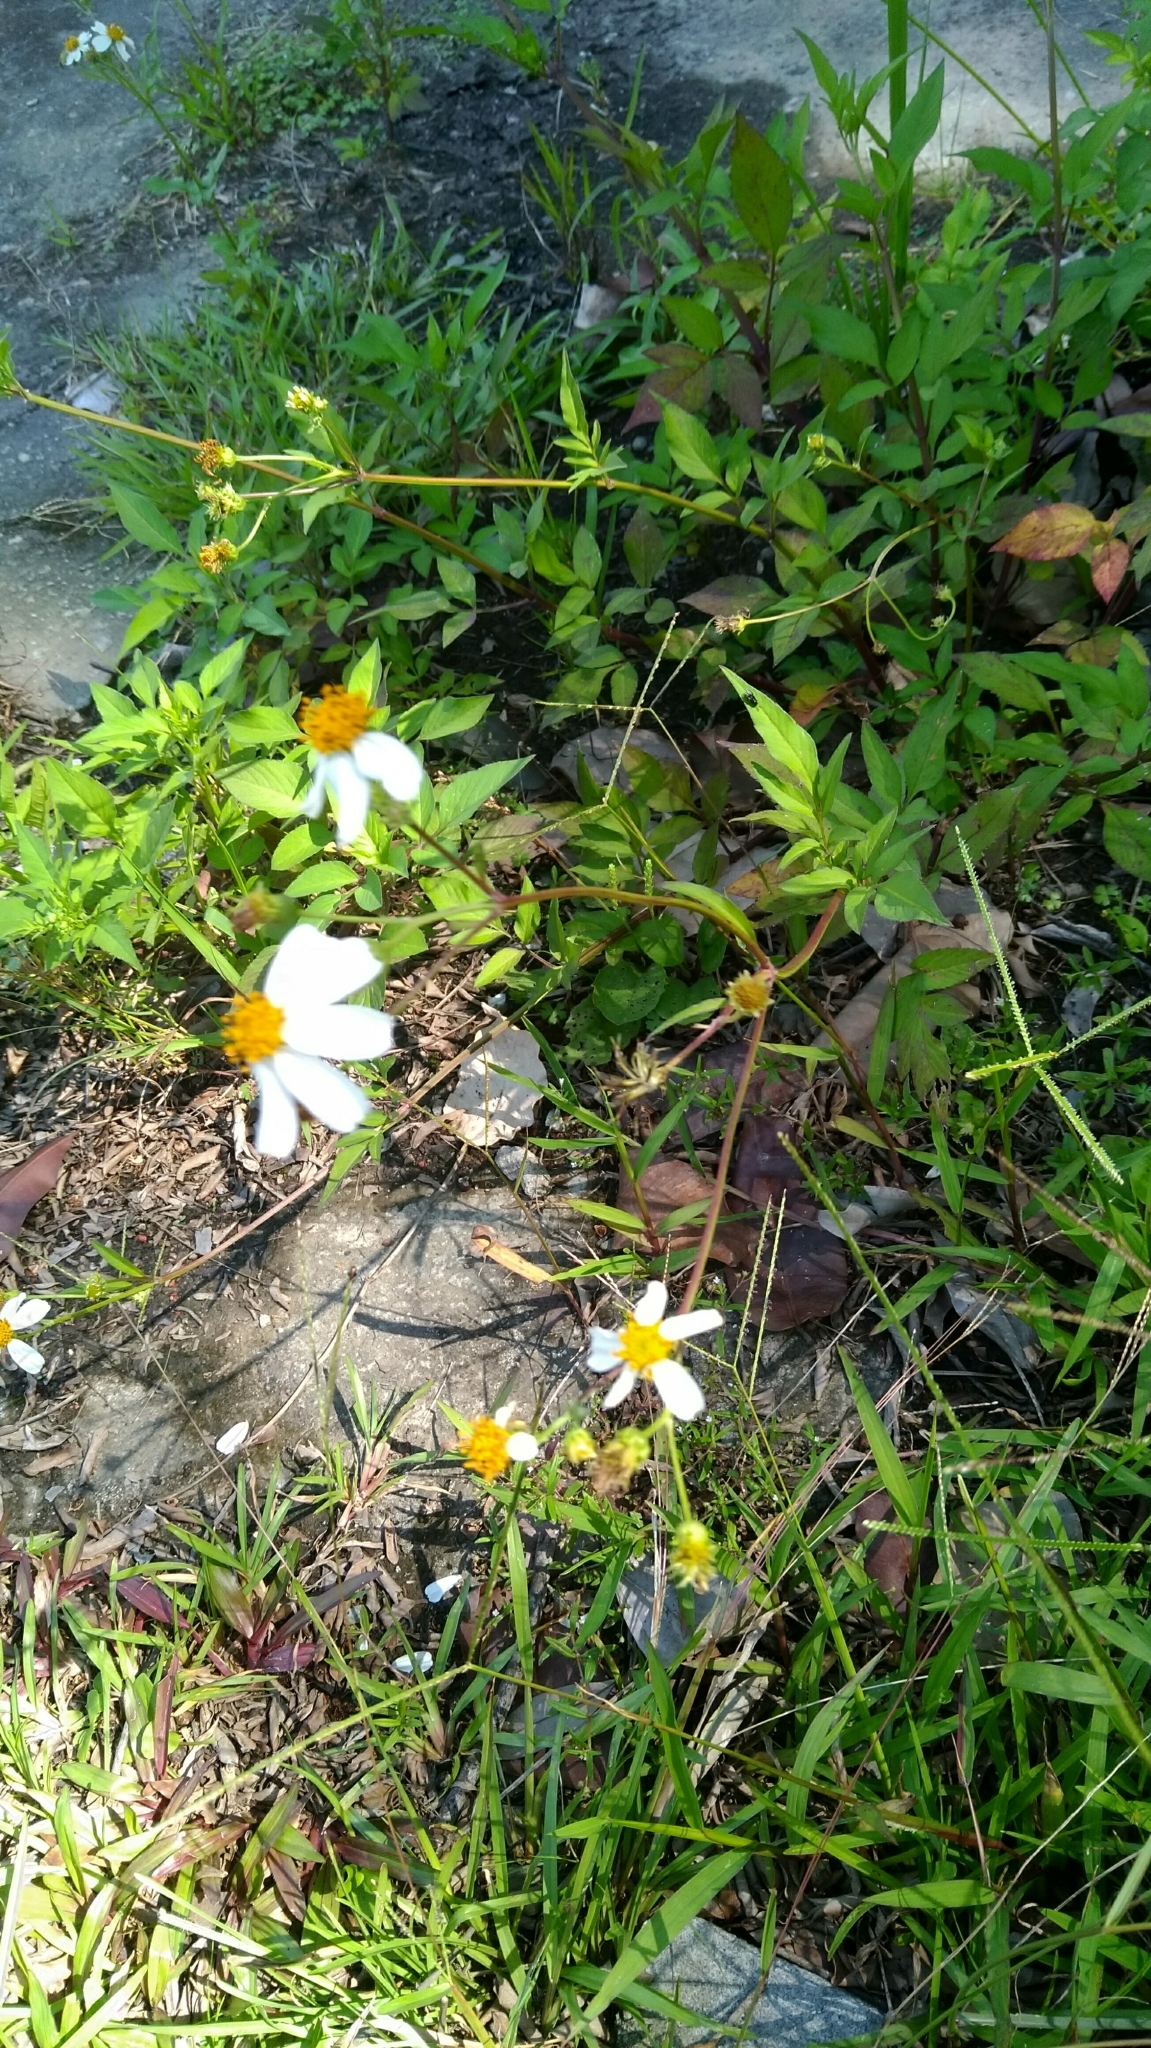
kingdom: Plantae
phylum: Tracheophyta
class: Magnoliopsida
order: Asterales
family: Asteraceae
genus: Bidens
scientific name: Bidens alba
